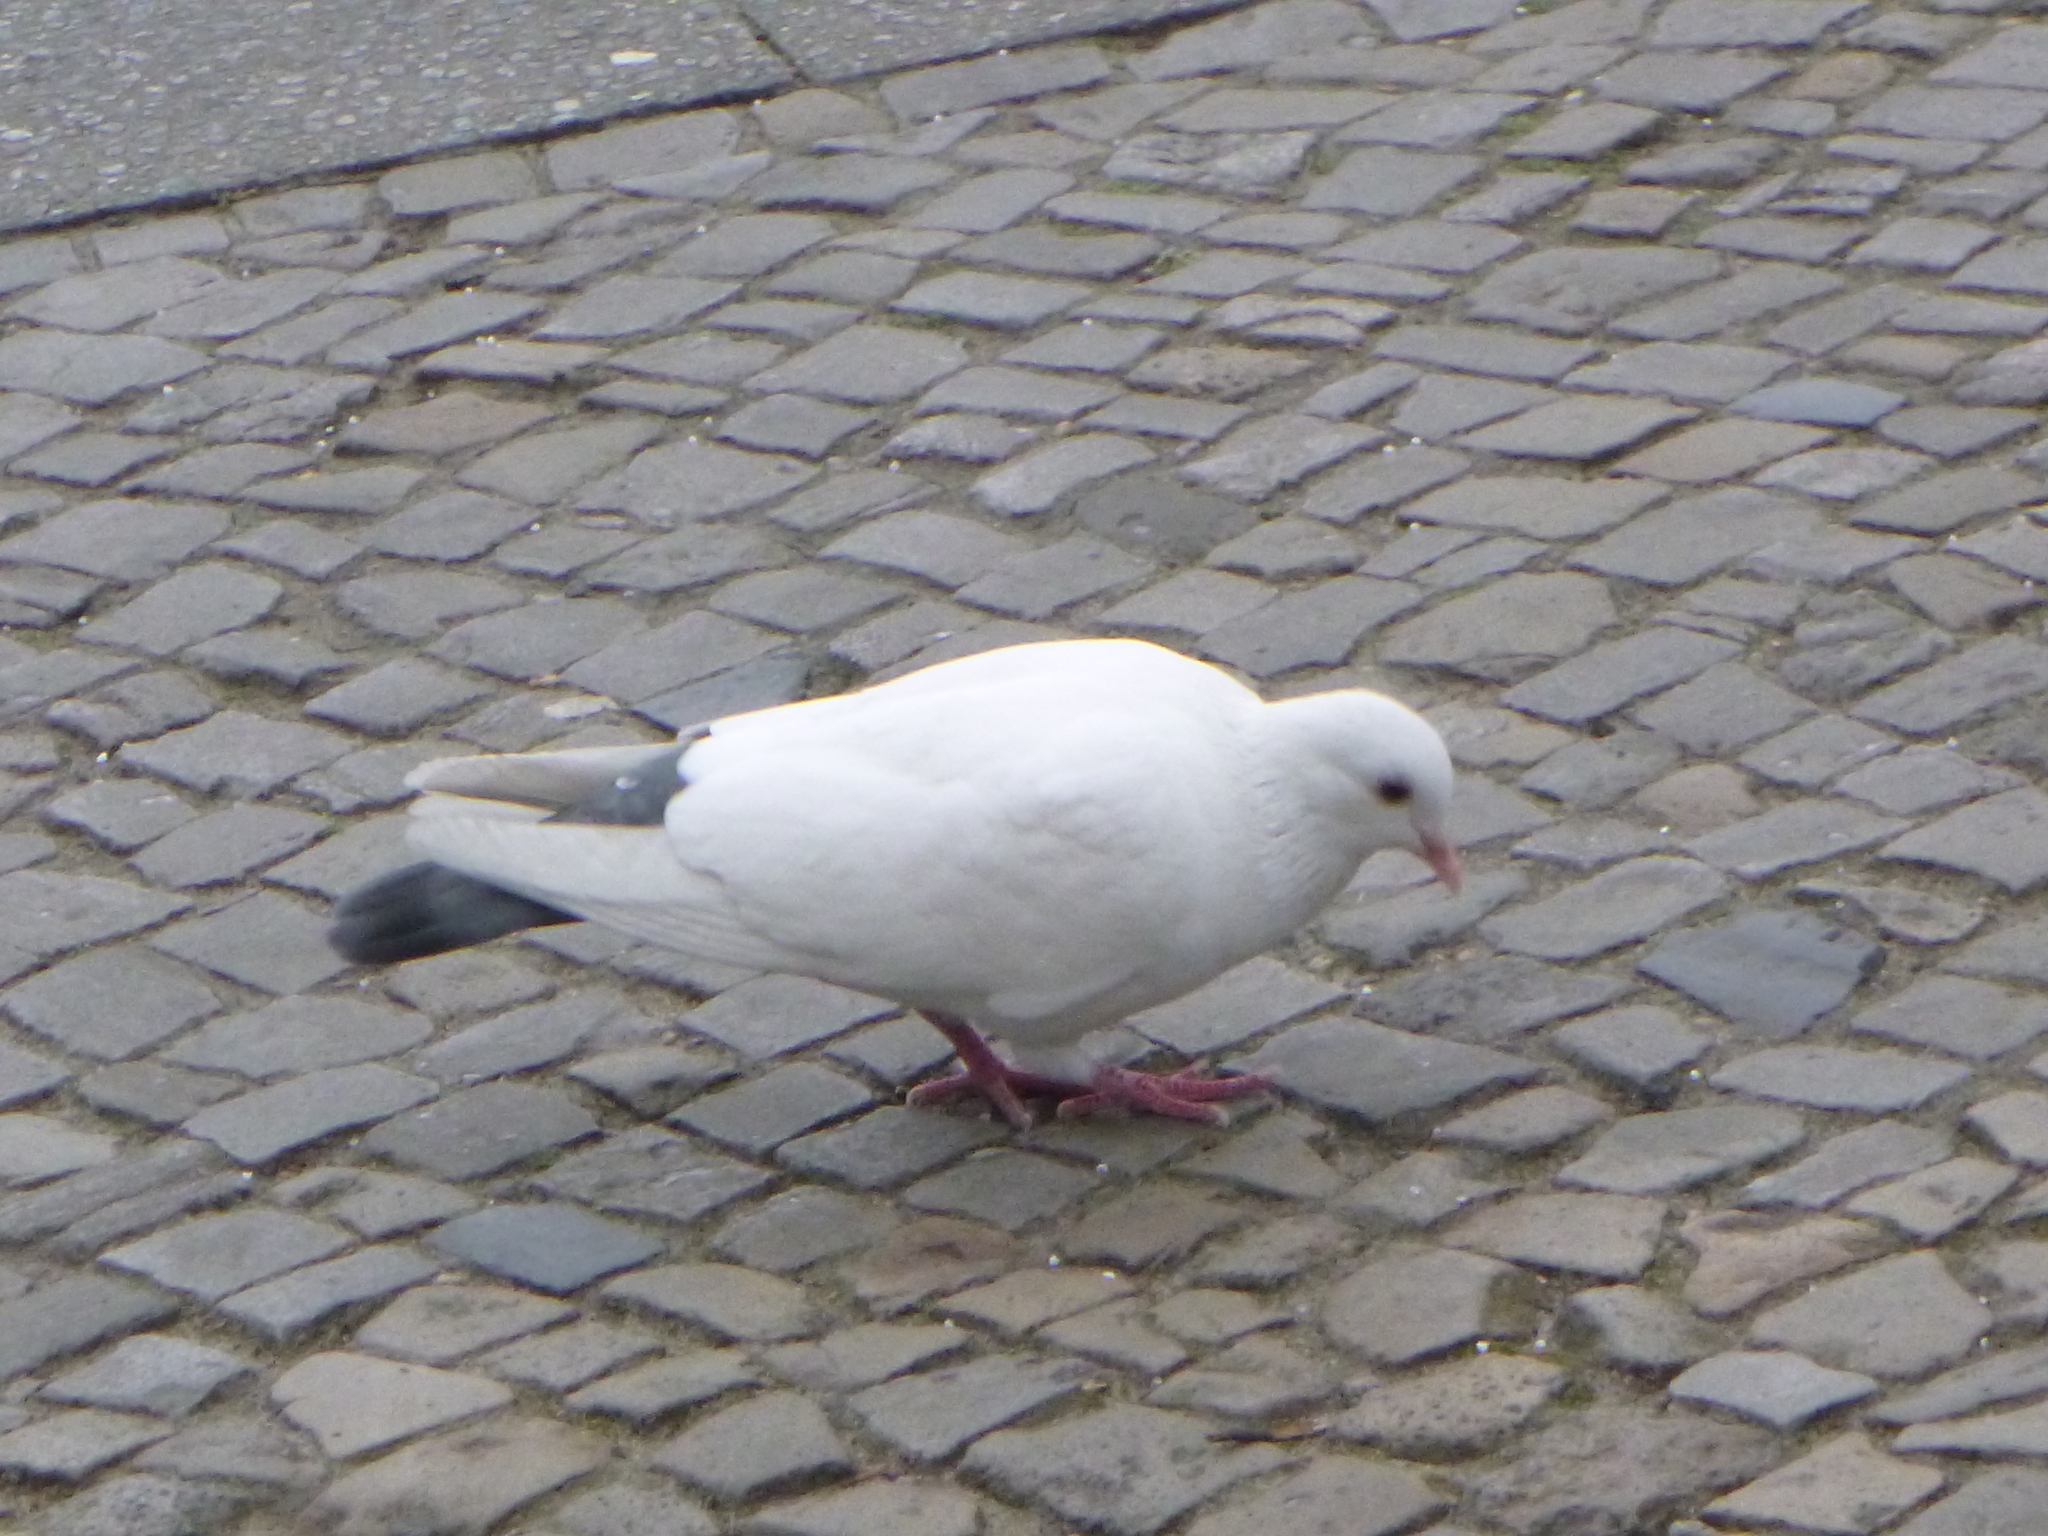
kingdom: Animalia
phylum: Chordata
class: Aves
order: Columbiformes
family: Columbidae
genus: Columba
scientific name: Columba livia
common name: Rock pigeon
